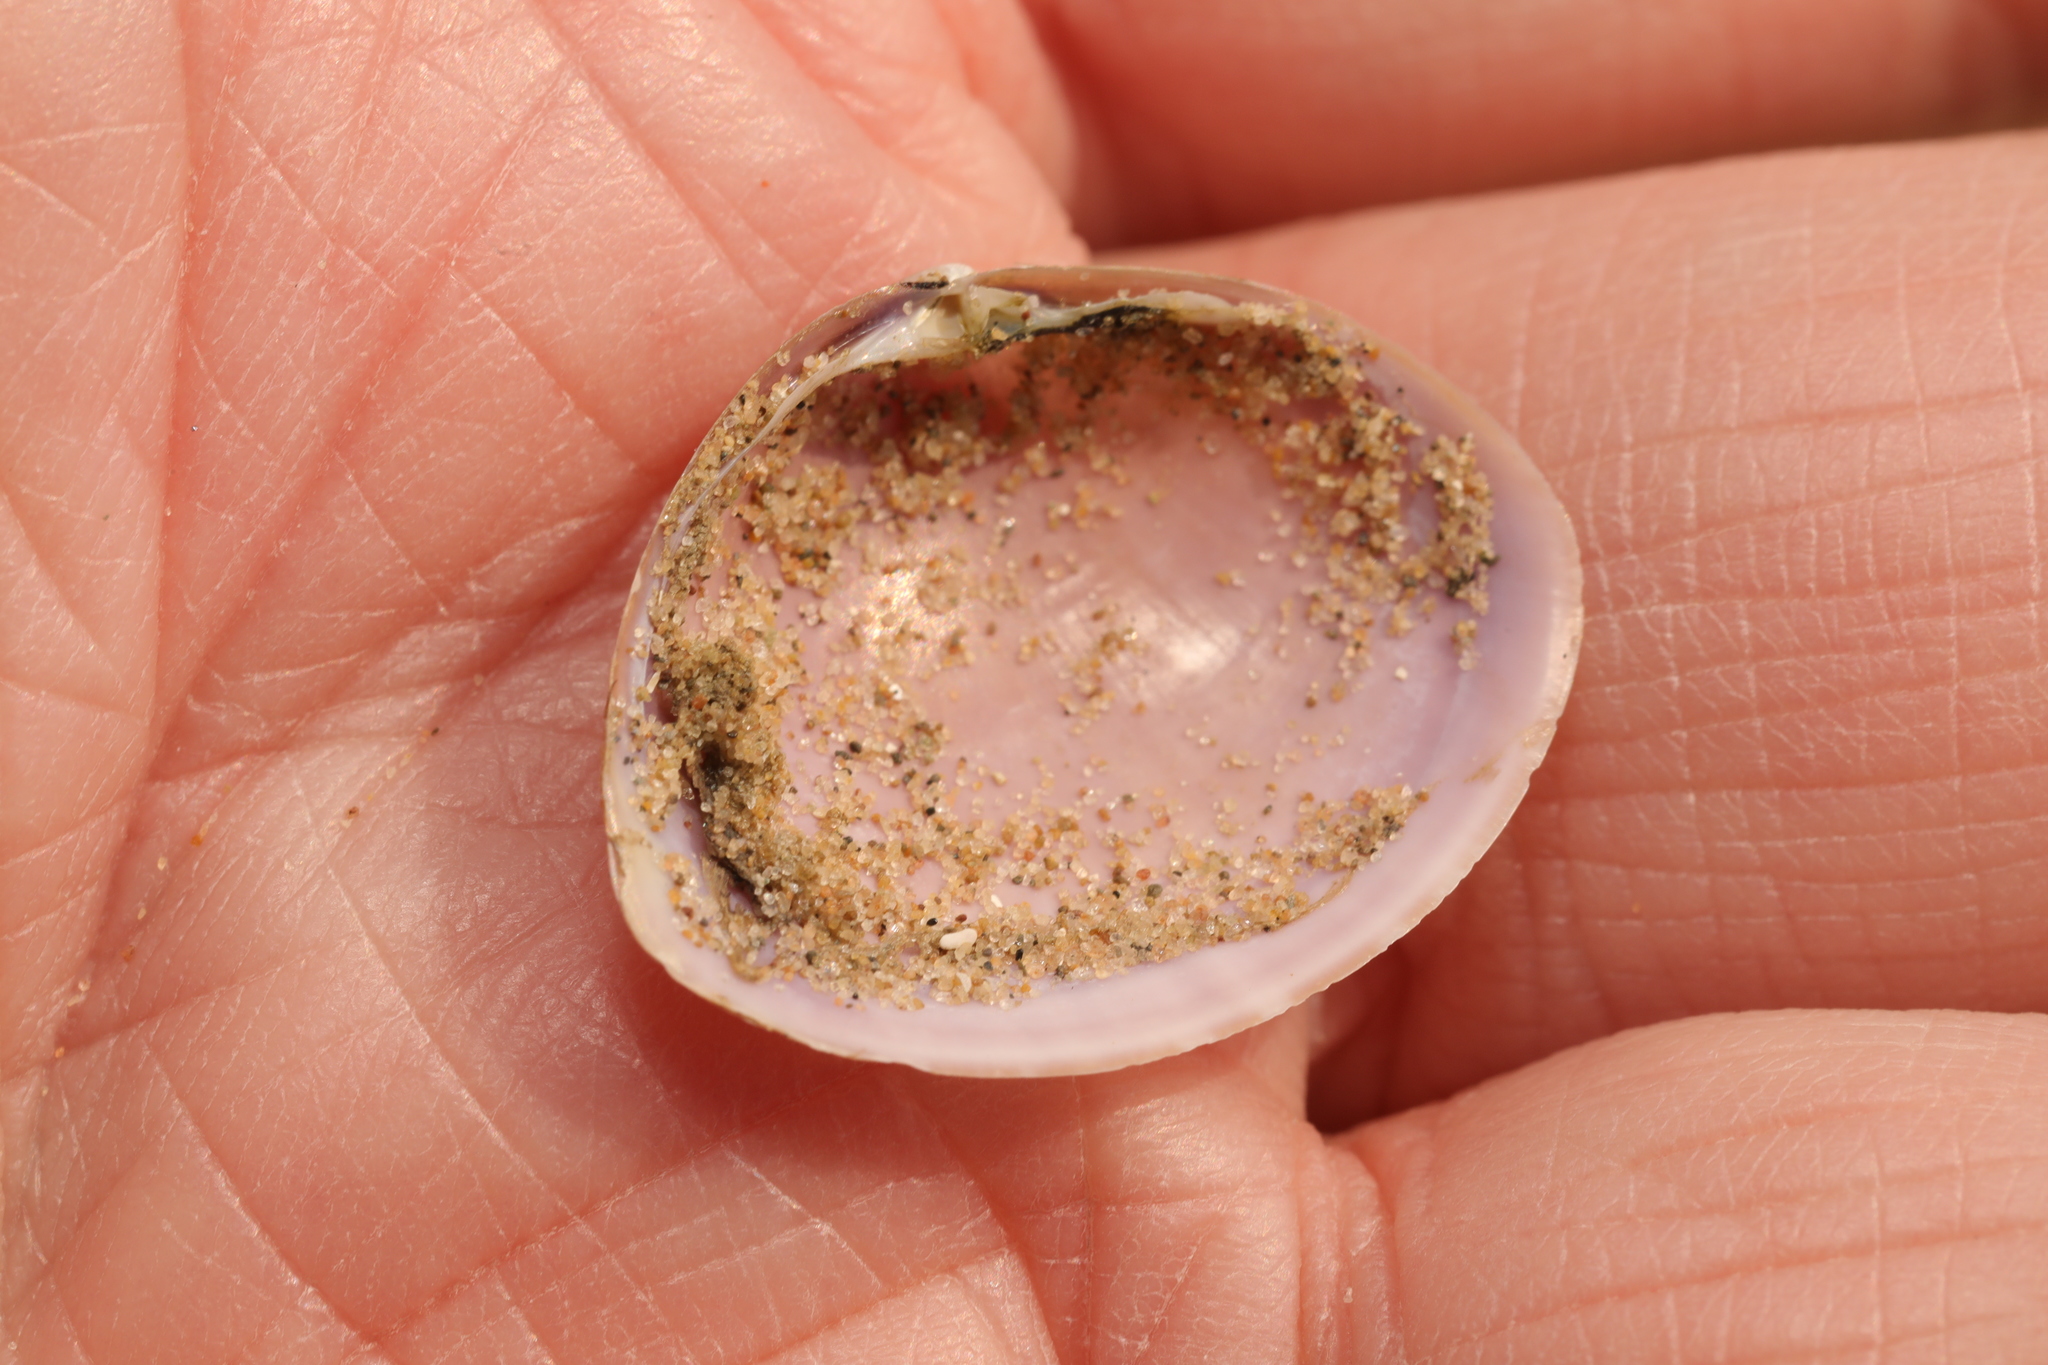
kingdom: Animalia
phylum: Mollusca
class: Bivalvia
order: Venerida
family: Mactridae
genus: Mactra
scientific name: Mactra stultorum
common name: Rayed trough shell
